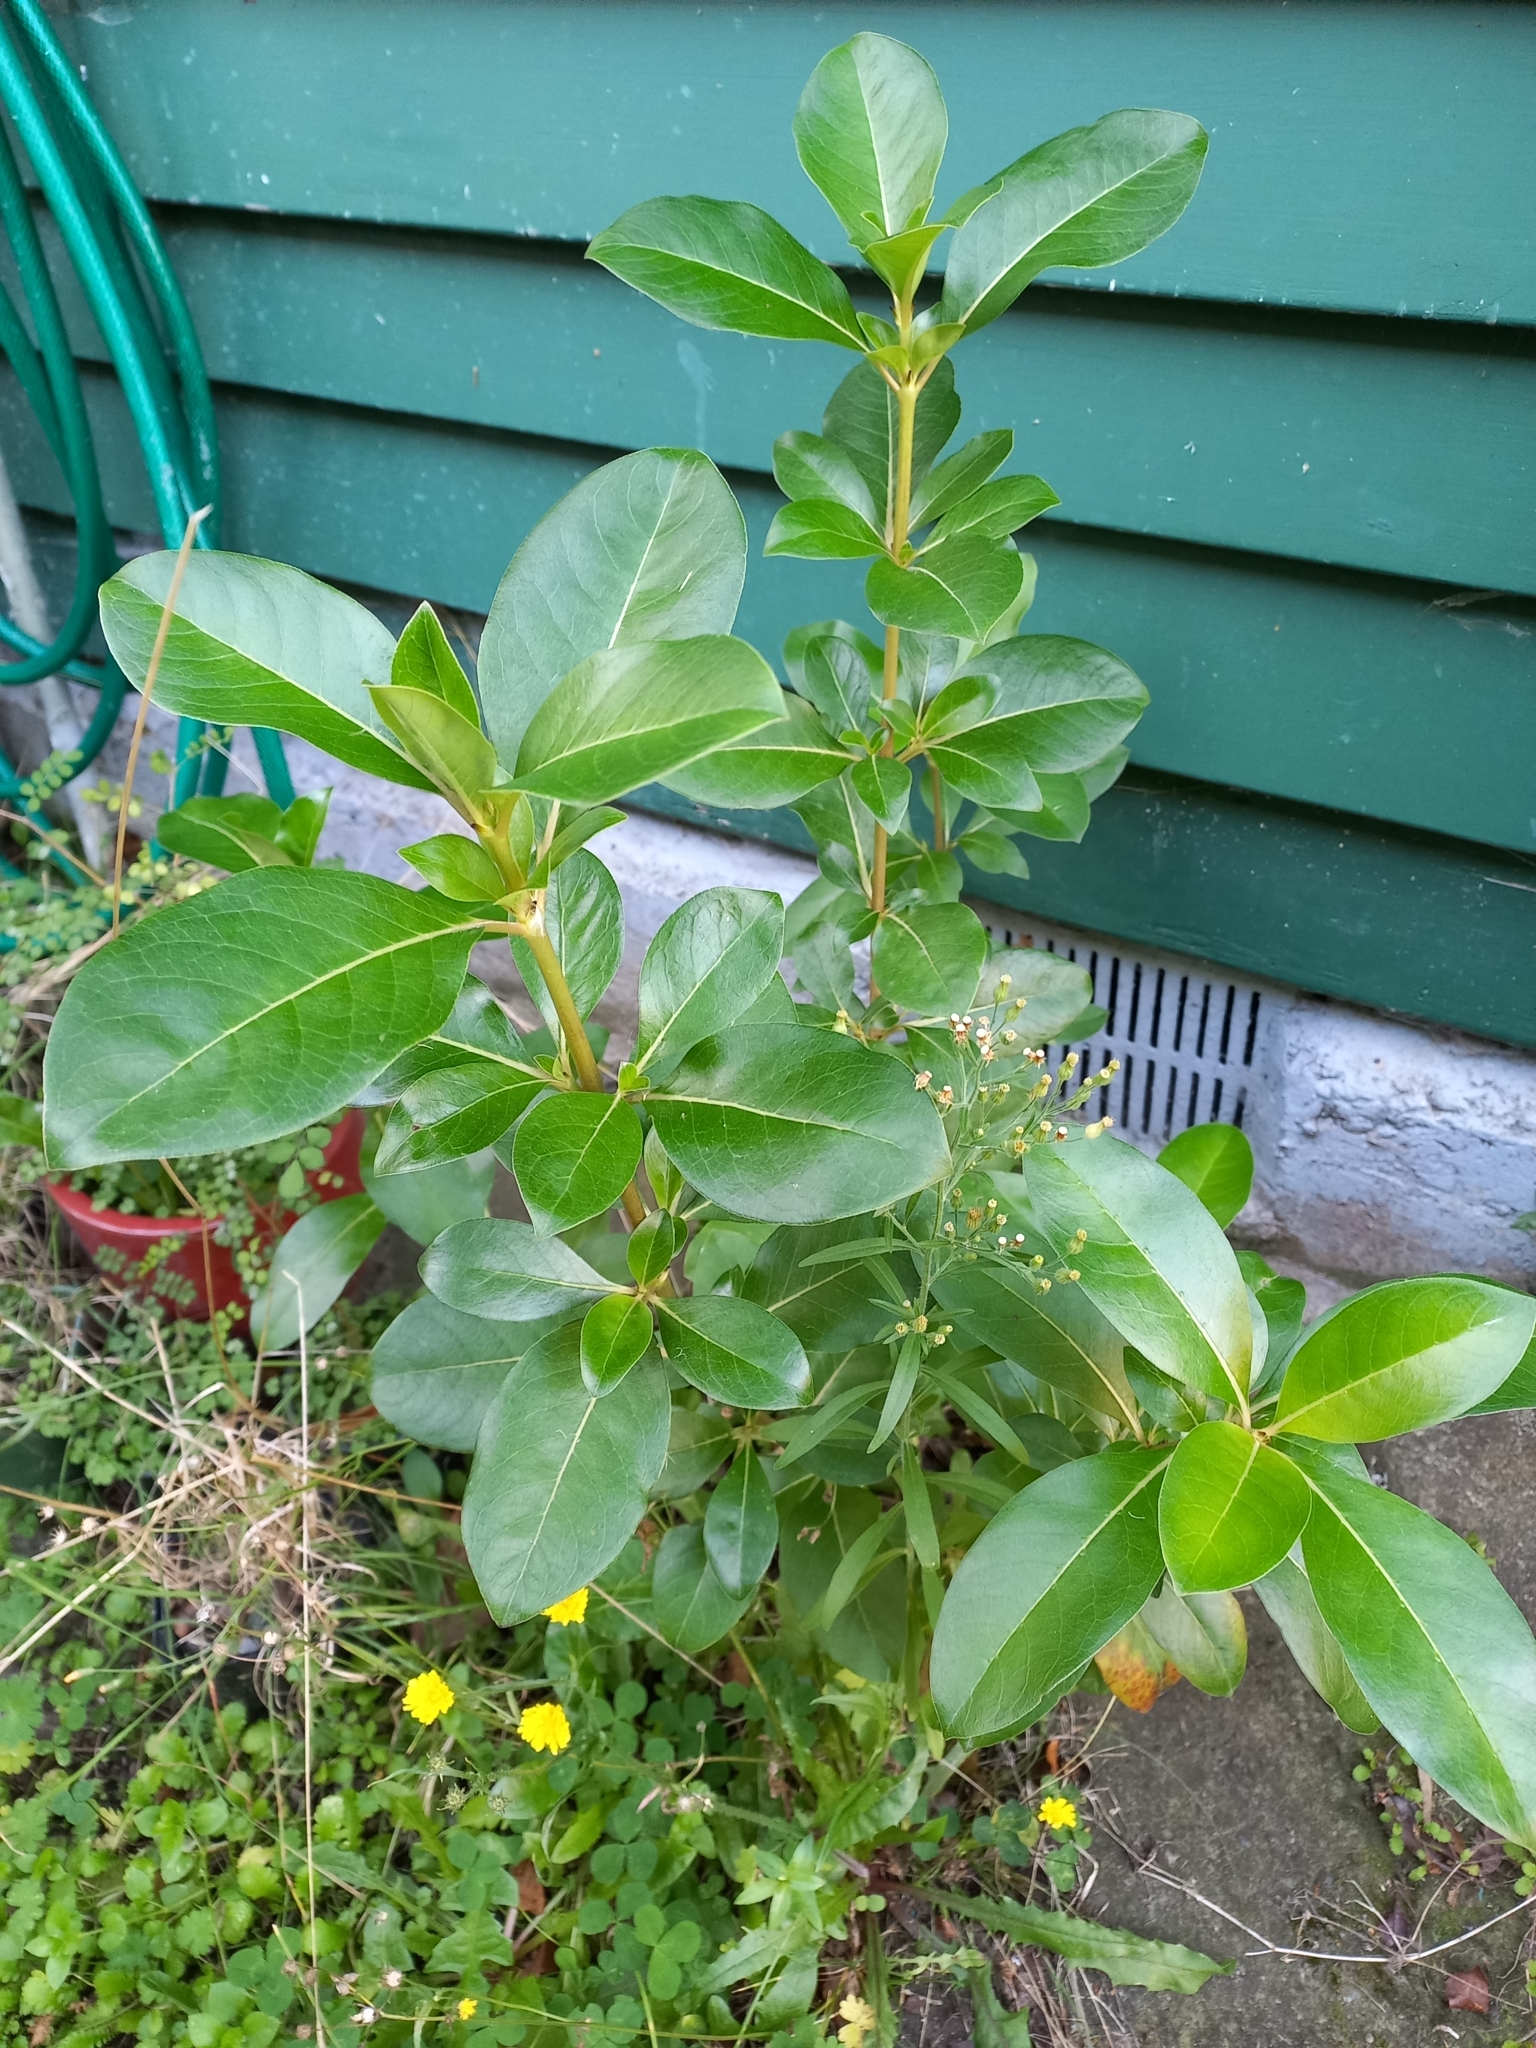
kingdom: Plantae
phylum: Tracheophyta
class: Magnoliopsida
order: Gentianales
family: Rubiaceae
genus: Coprosma
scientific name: Coprosma robusta
